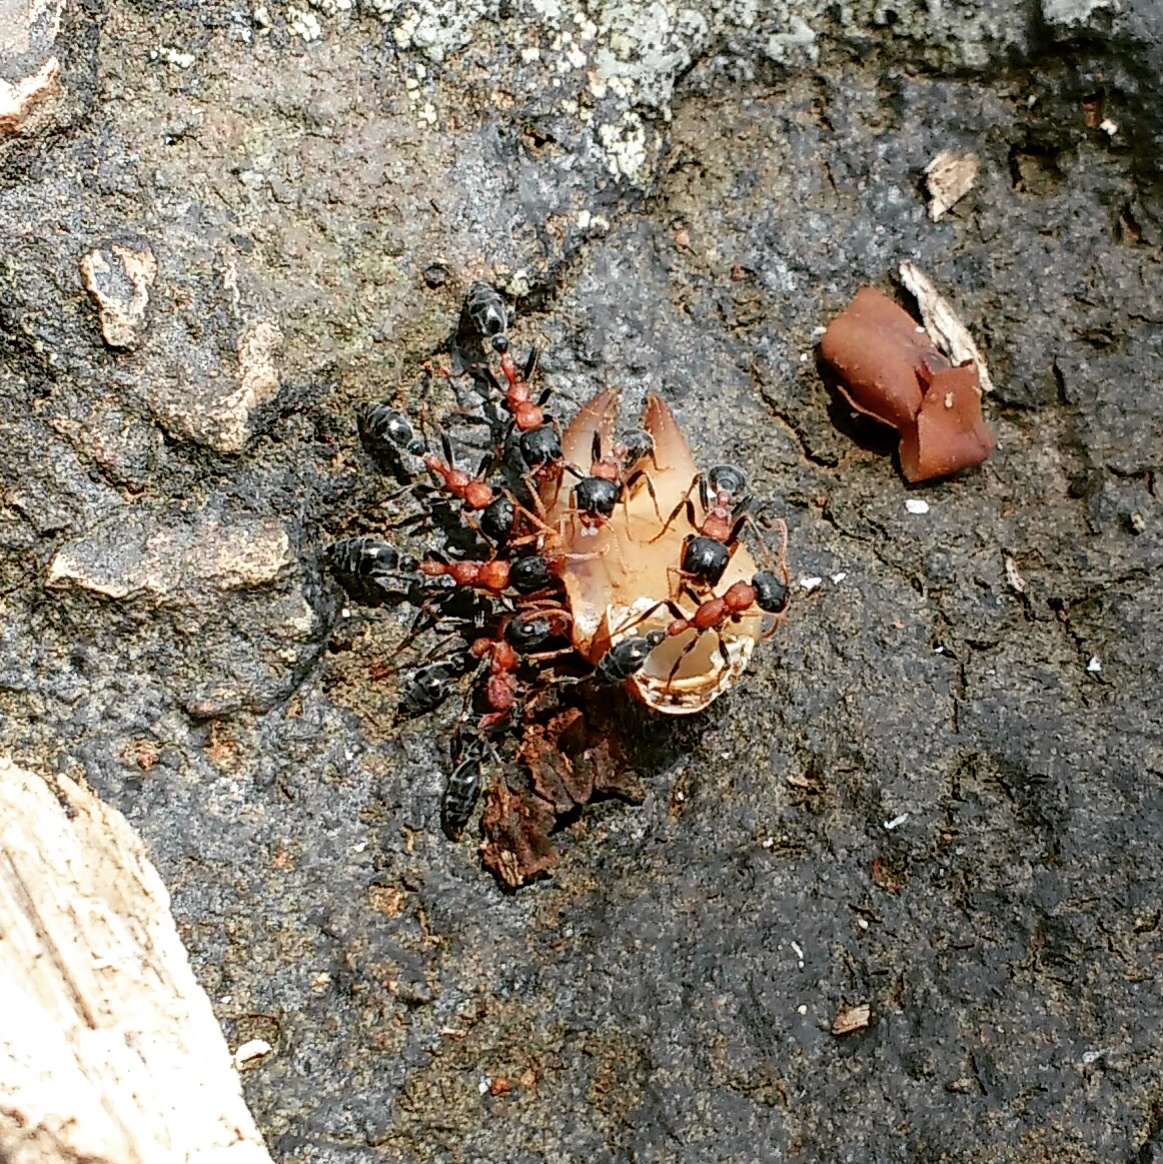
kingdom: Animalia
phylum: Arthropoda
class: Insecta
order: Hymenoptera
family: Formicidae
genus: Tetraponera
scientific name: Tetraponera rufonigra
